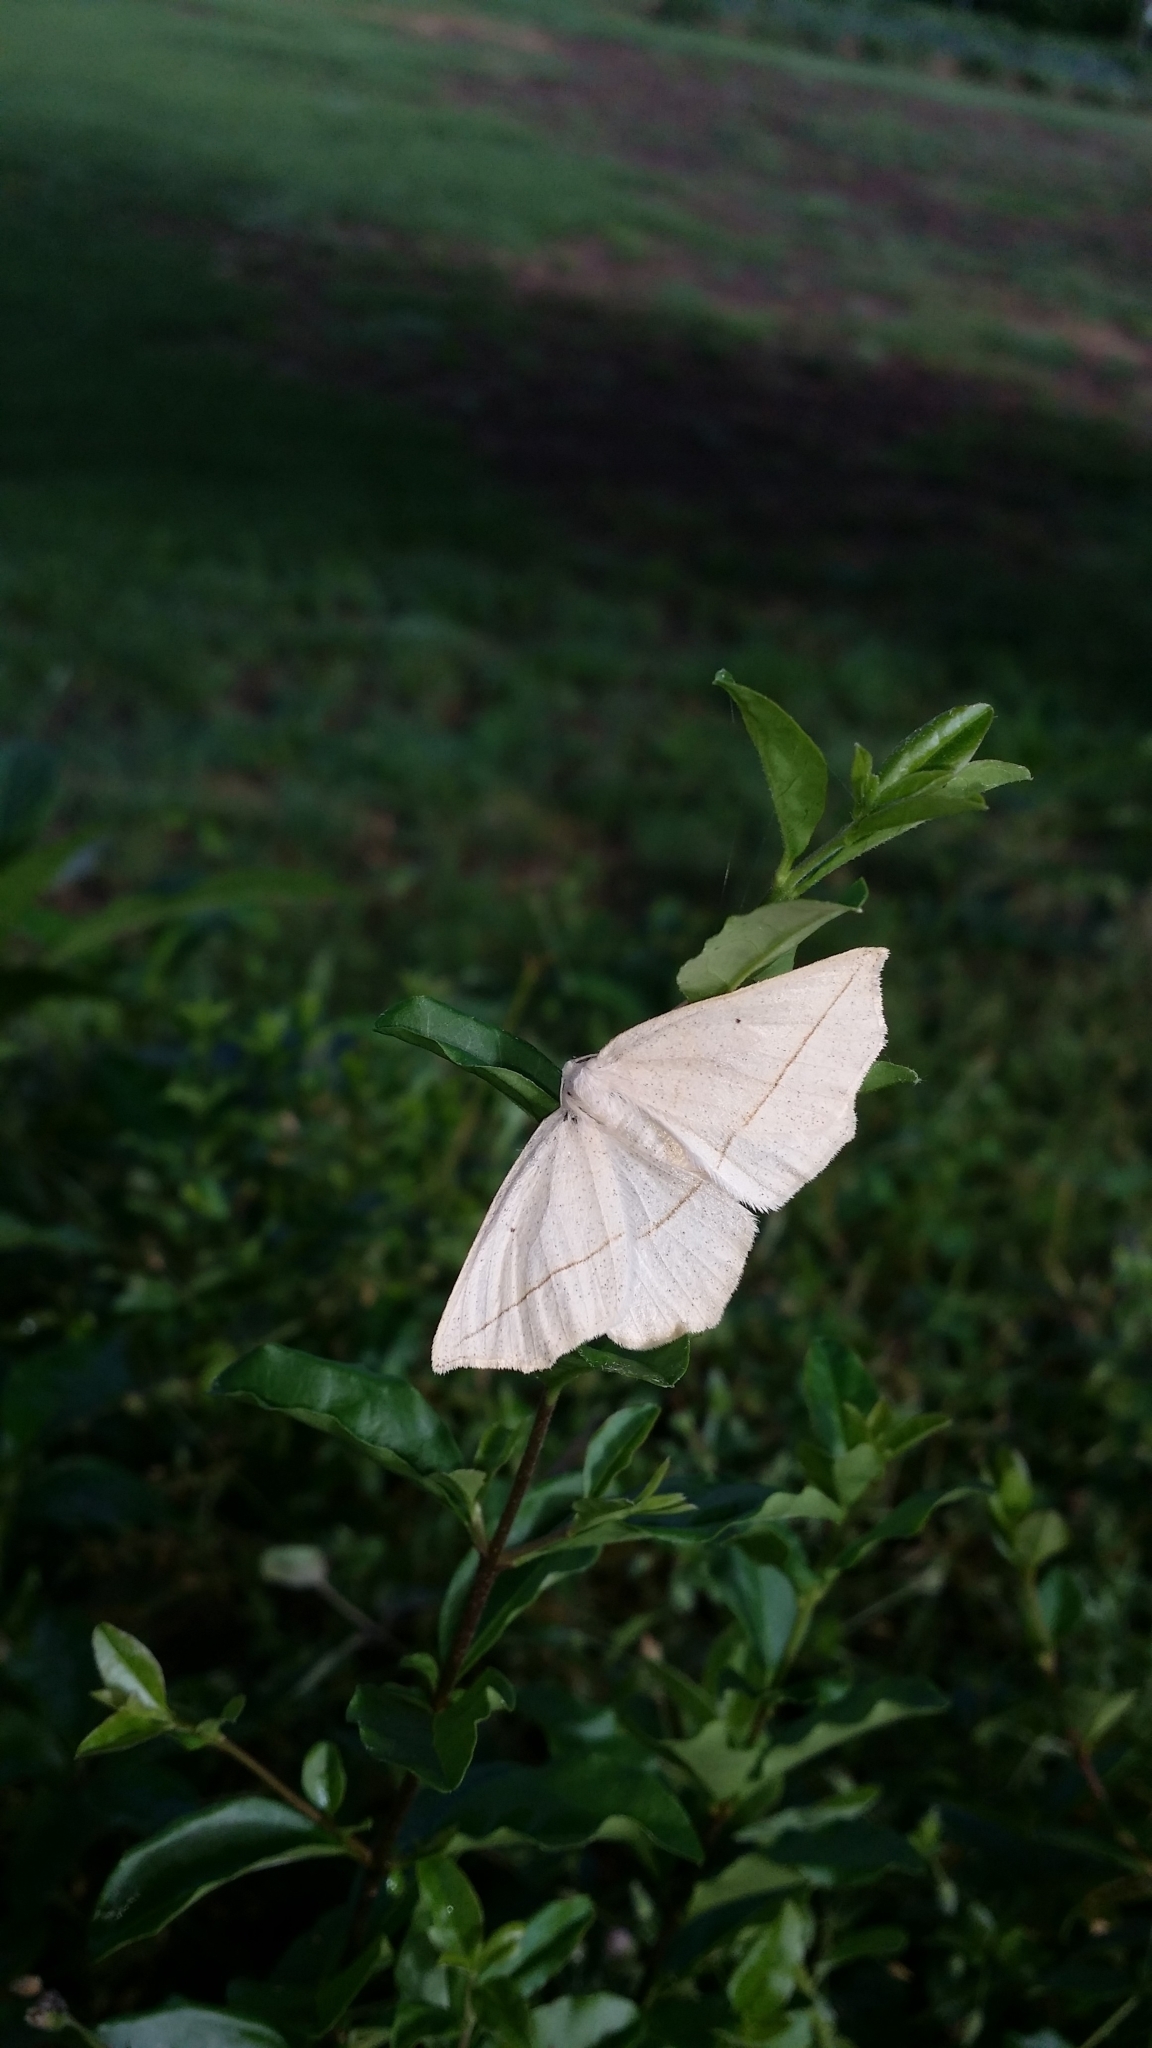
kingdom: Animalia
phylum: Arthropoda
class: Insecta
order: Lepidoptera
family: Geometridae
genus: Eusarca
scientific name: Eusarca confusaria
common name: Confused eusarca
